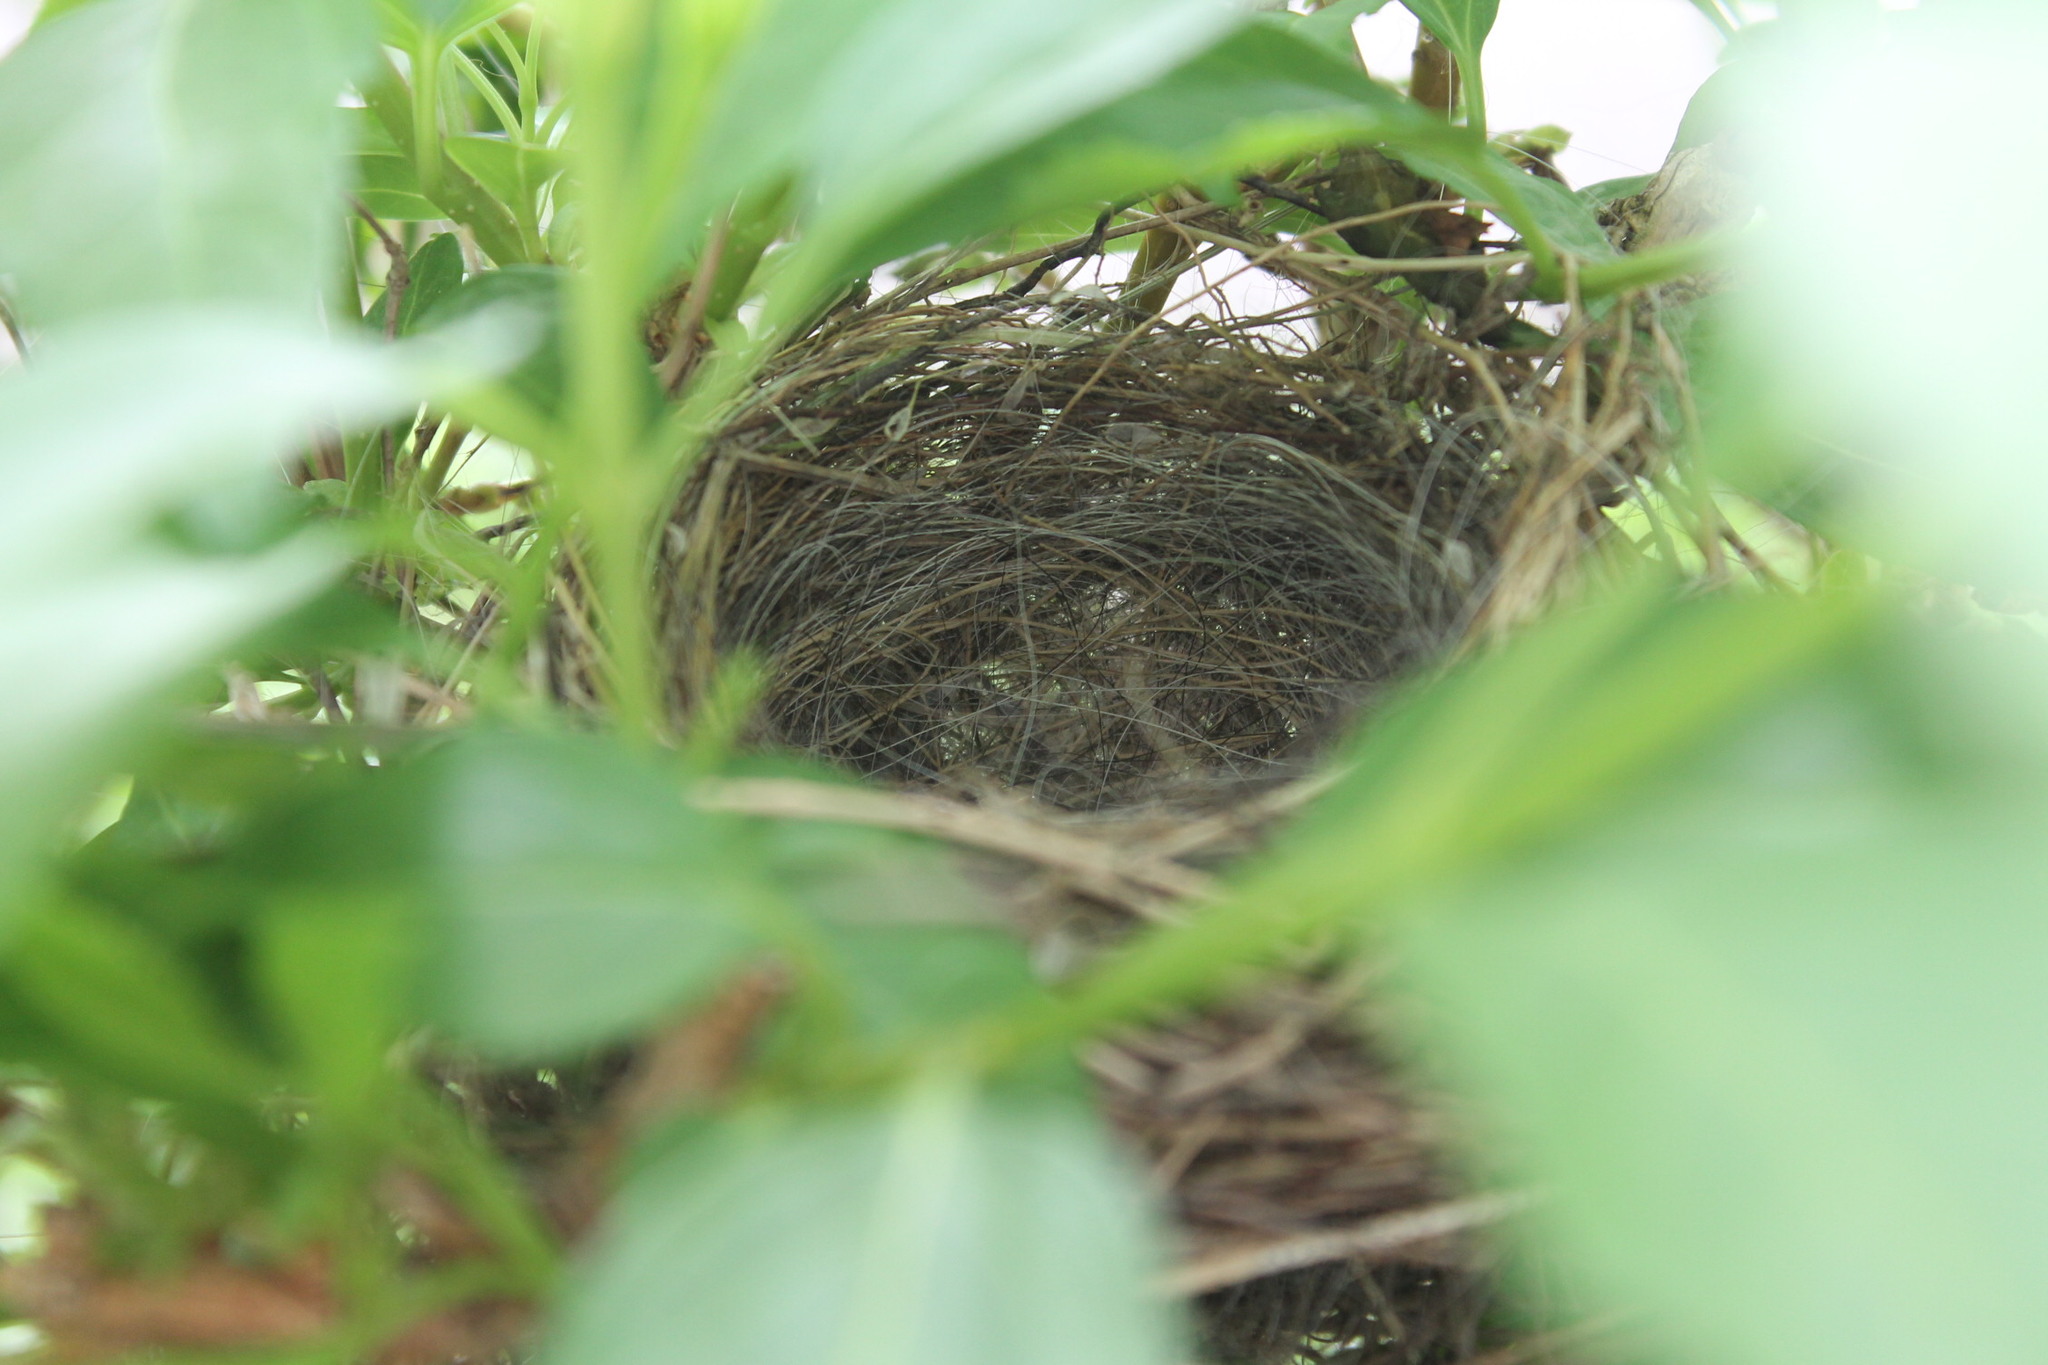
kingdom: Animalia
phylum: Chordata
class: Aves
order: Passeriformes
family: Passerellidae
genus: Spizella
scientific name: Spizella passerina
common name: Chipping sparrow
